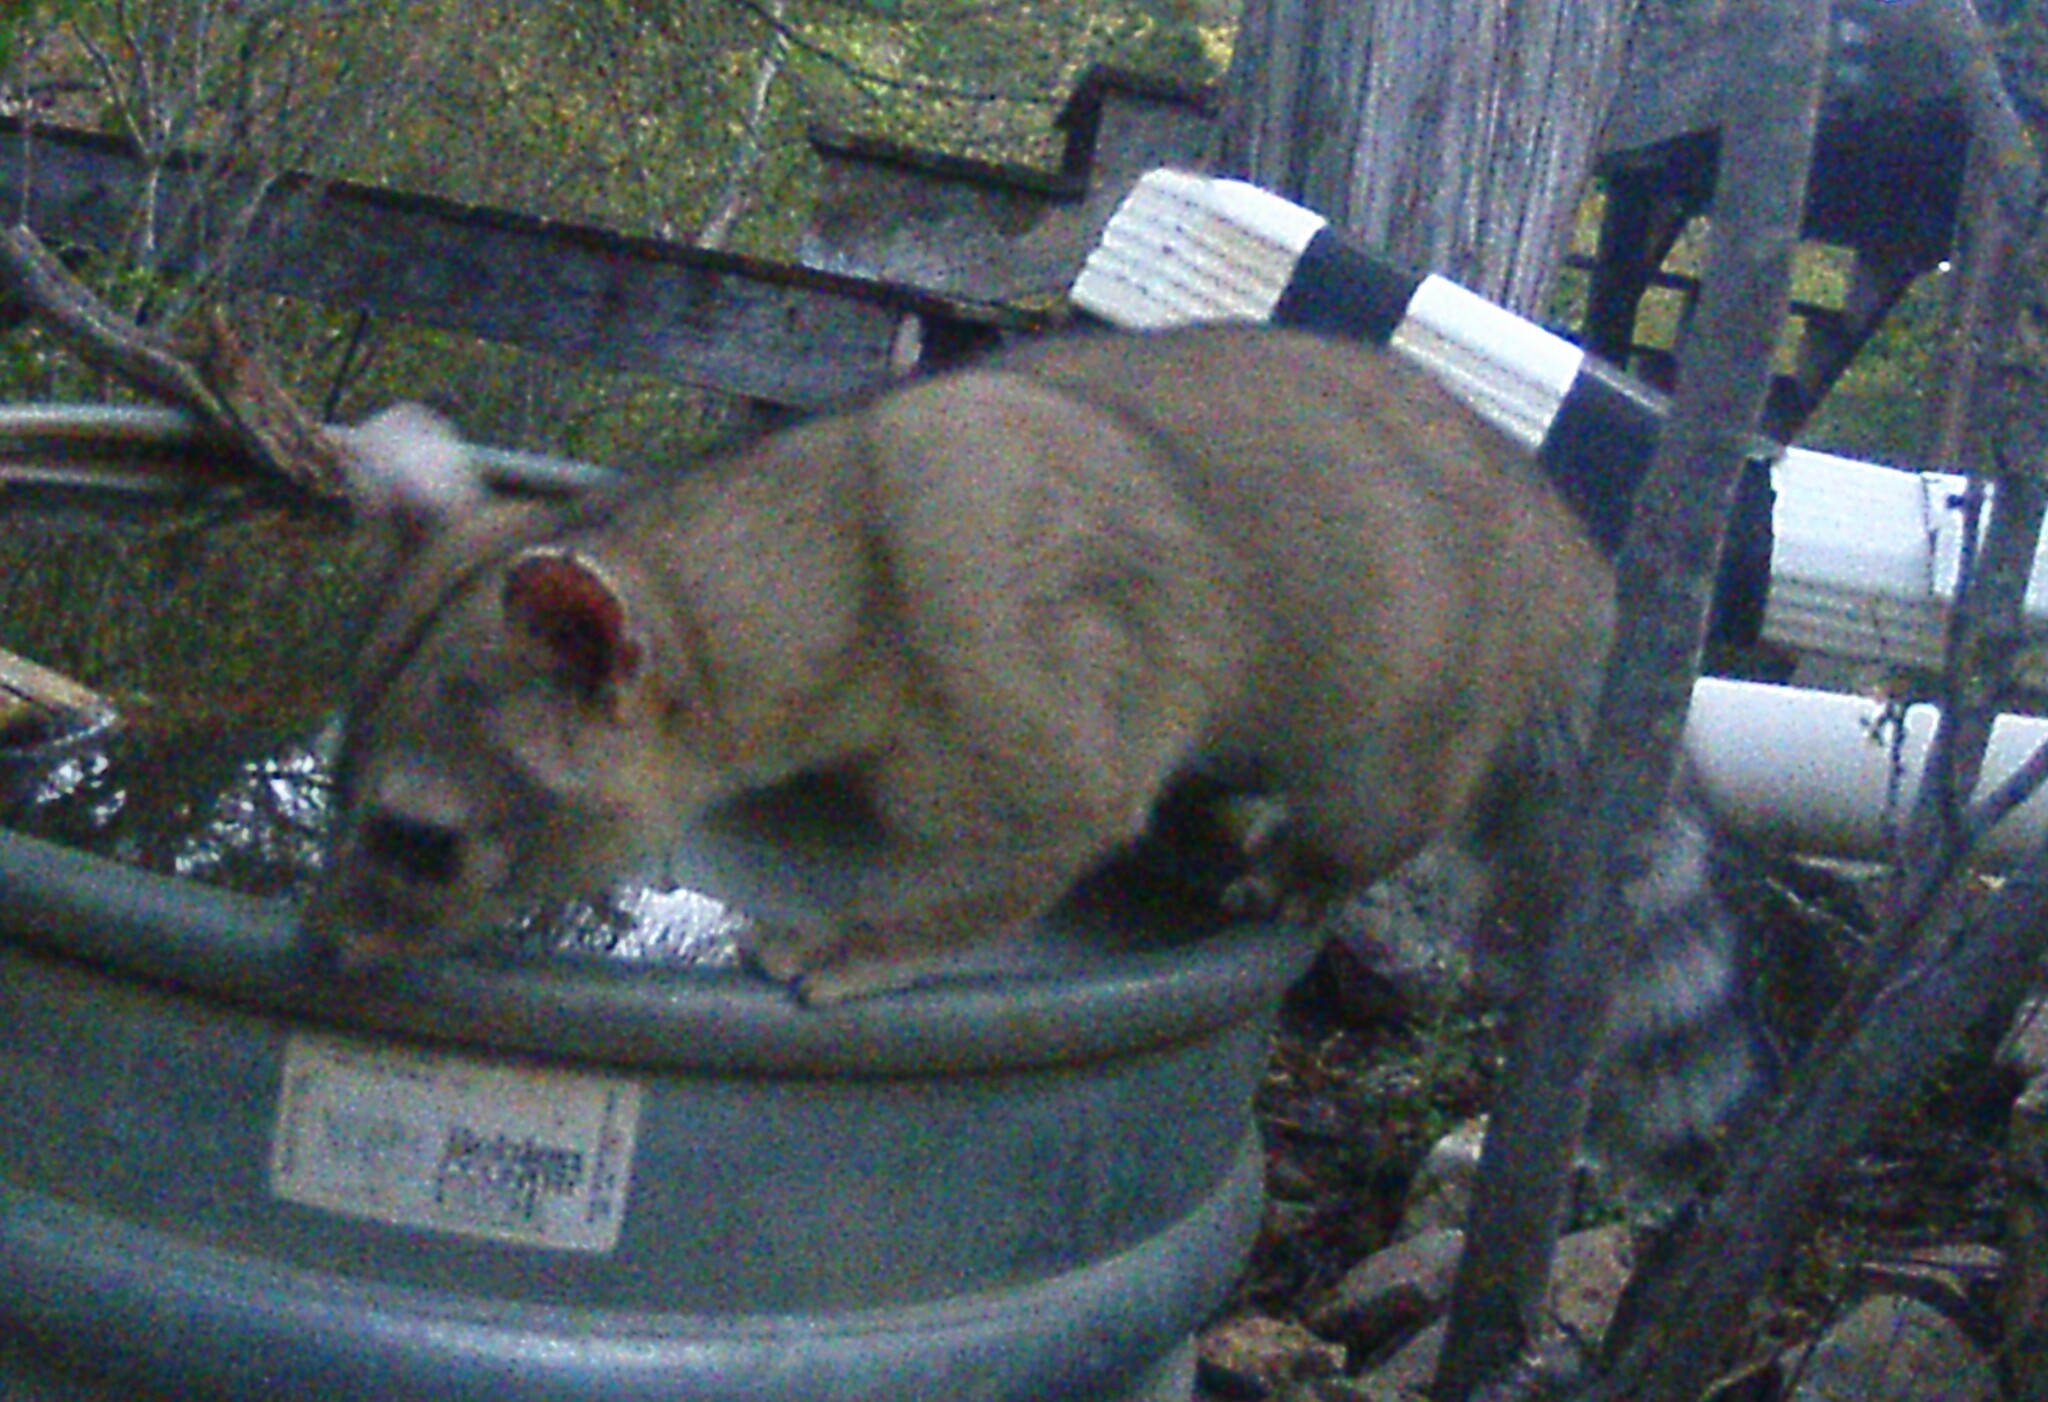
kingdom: Animalia
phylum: Chordata
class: Mammalia
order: Carnivora
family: Procyonidae
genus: Bassariscus
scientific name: Bassariscus astutus
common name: Ringtail
